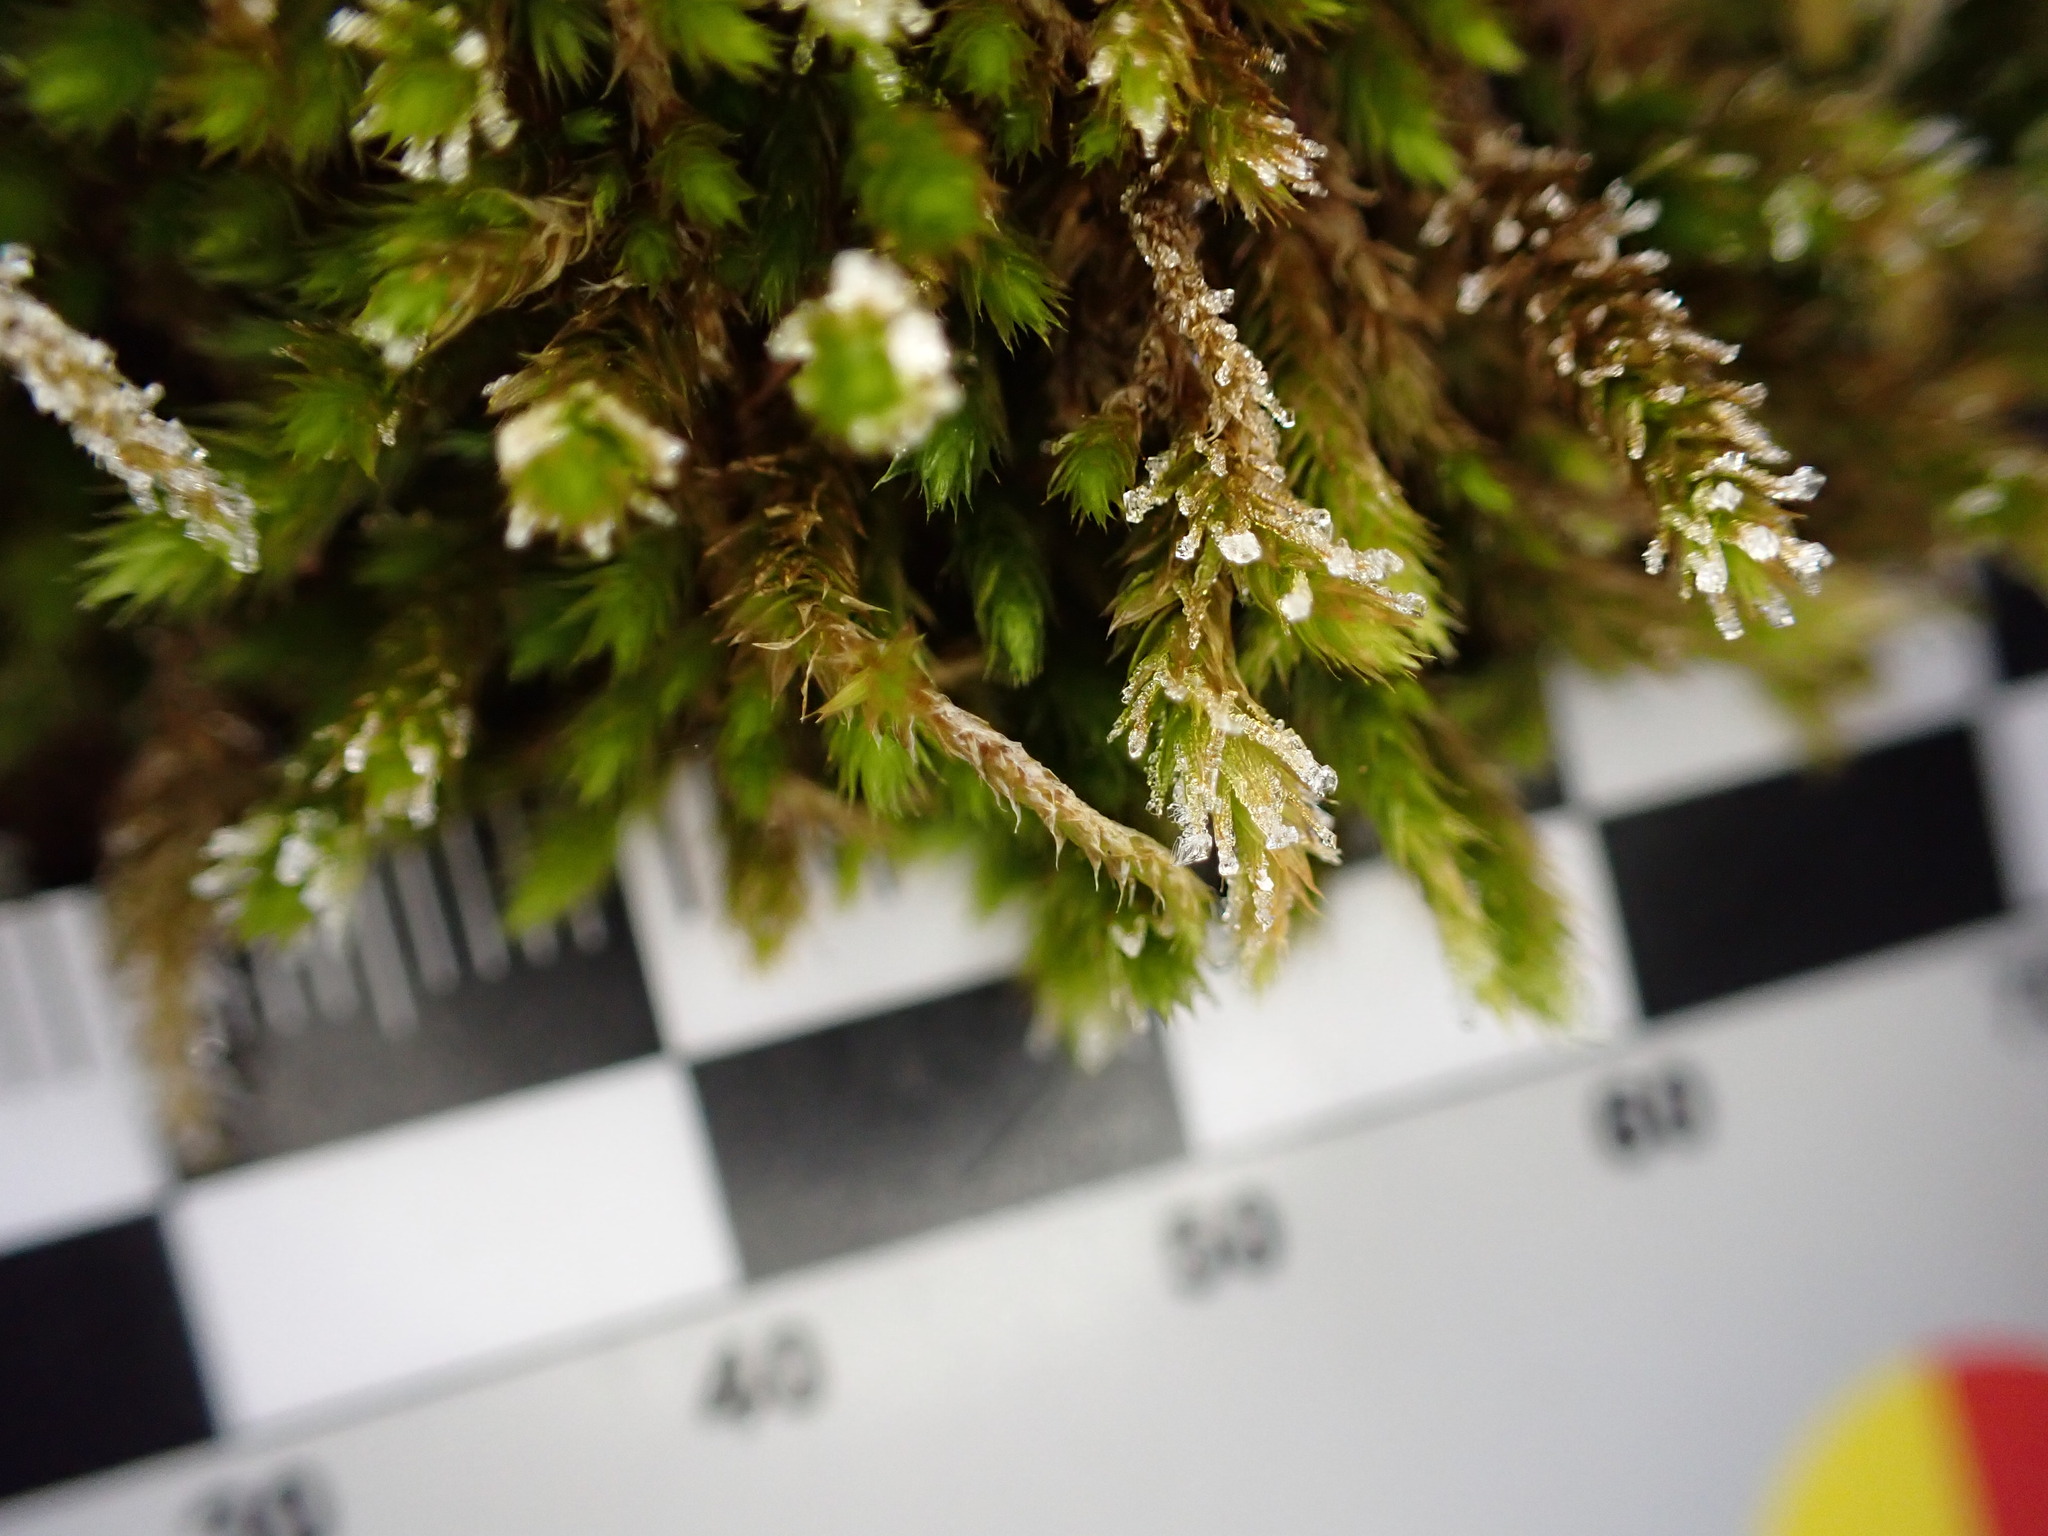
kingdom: Plantae
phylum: Bryophyta
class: Bryopsida
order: Hypnales
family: Leucodontaceae
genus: Leucodon
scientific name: Leucodon sciuroides
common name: Squirrel-tail moss
